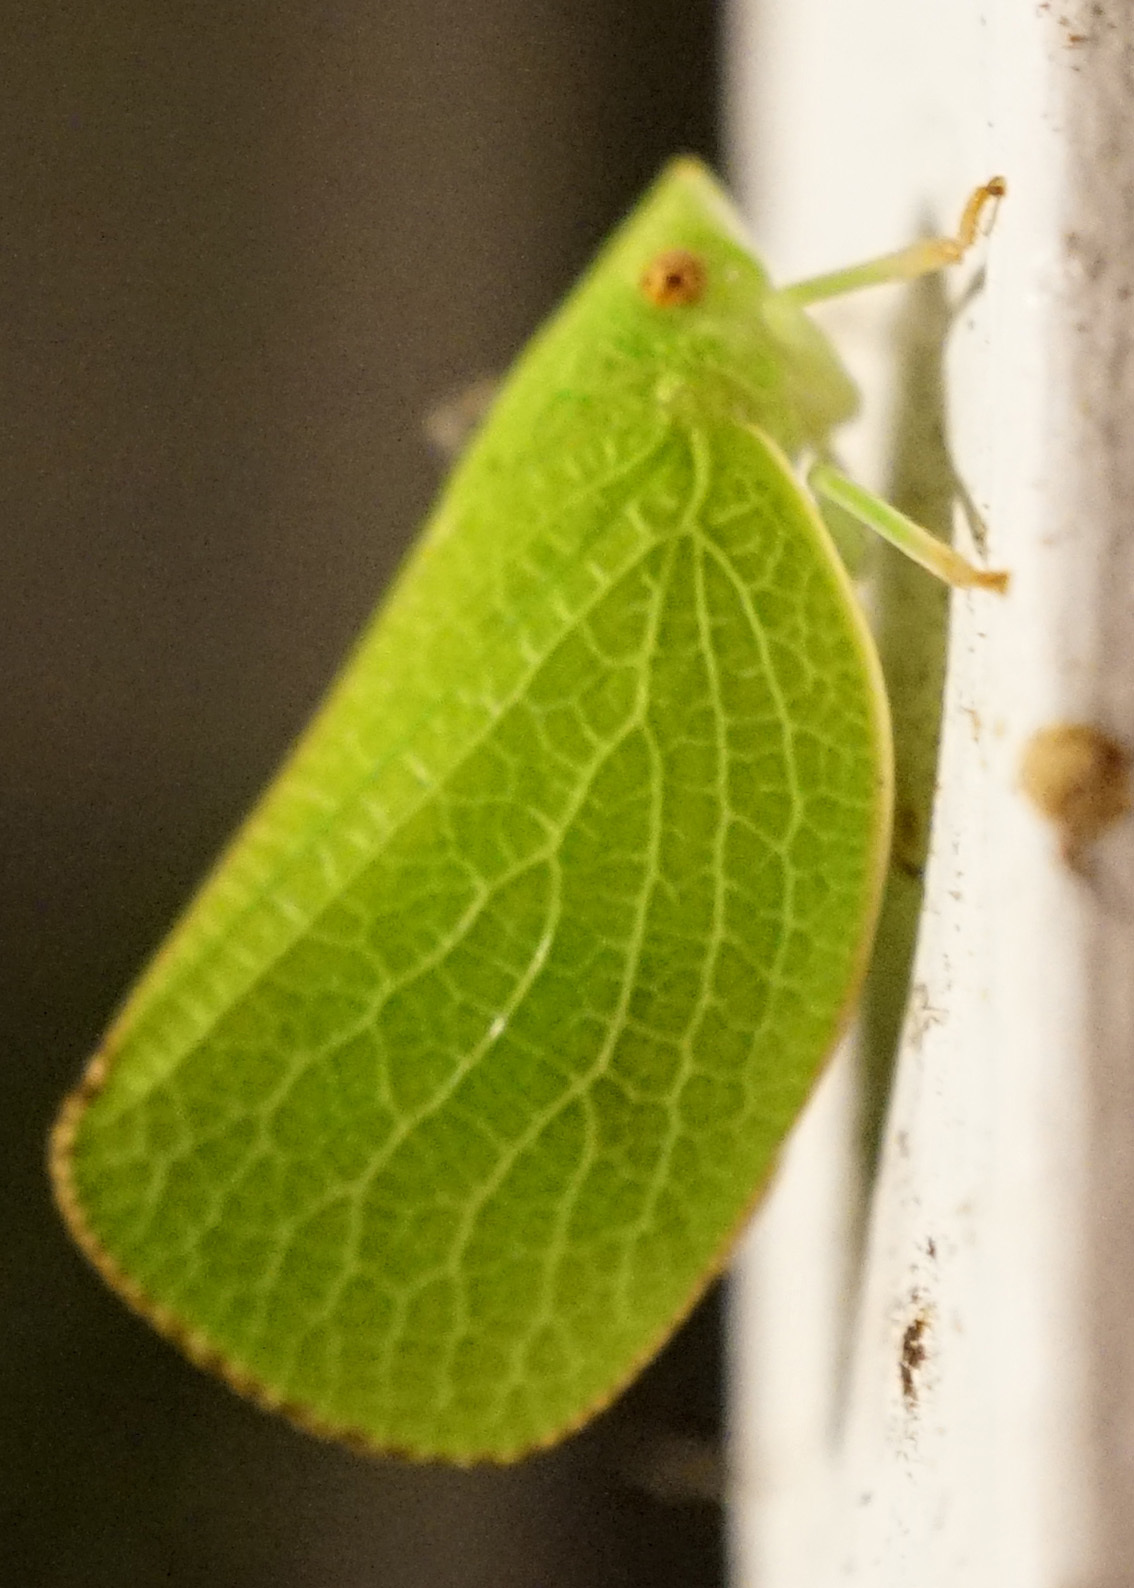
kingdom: Animalia
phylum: Arthropoda
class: Insecta
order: Hemiptera
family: Acanaloniidae
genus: Acanalonia
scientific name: Acanalonia conica
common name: Green cone-headed planthopper
